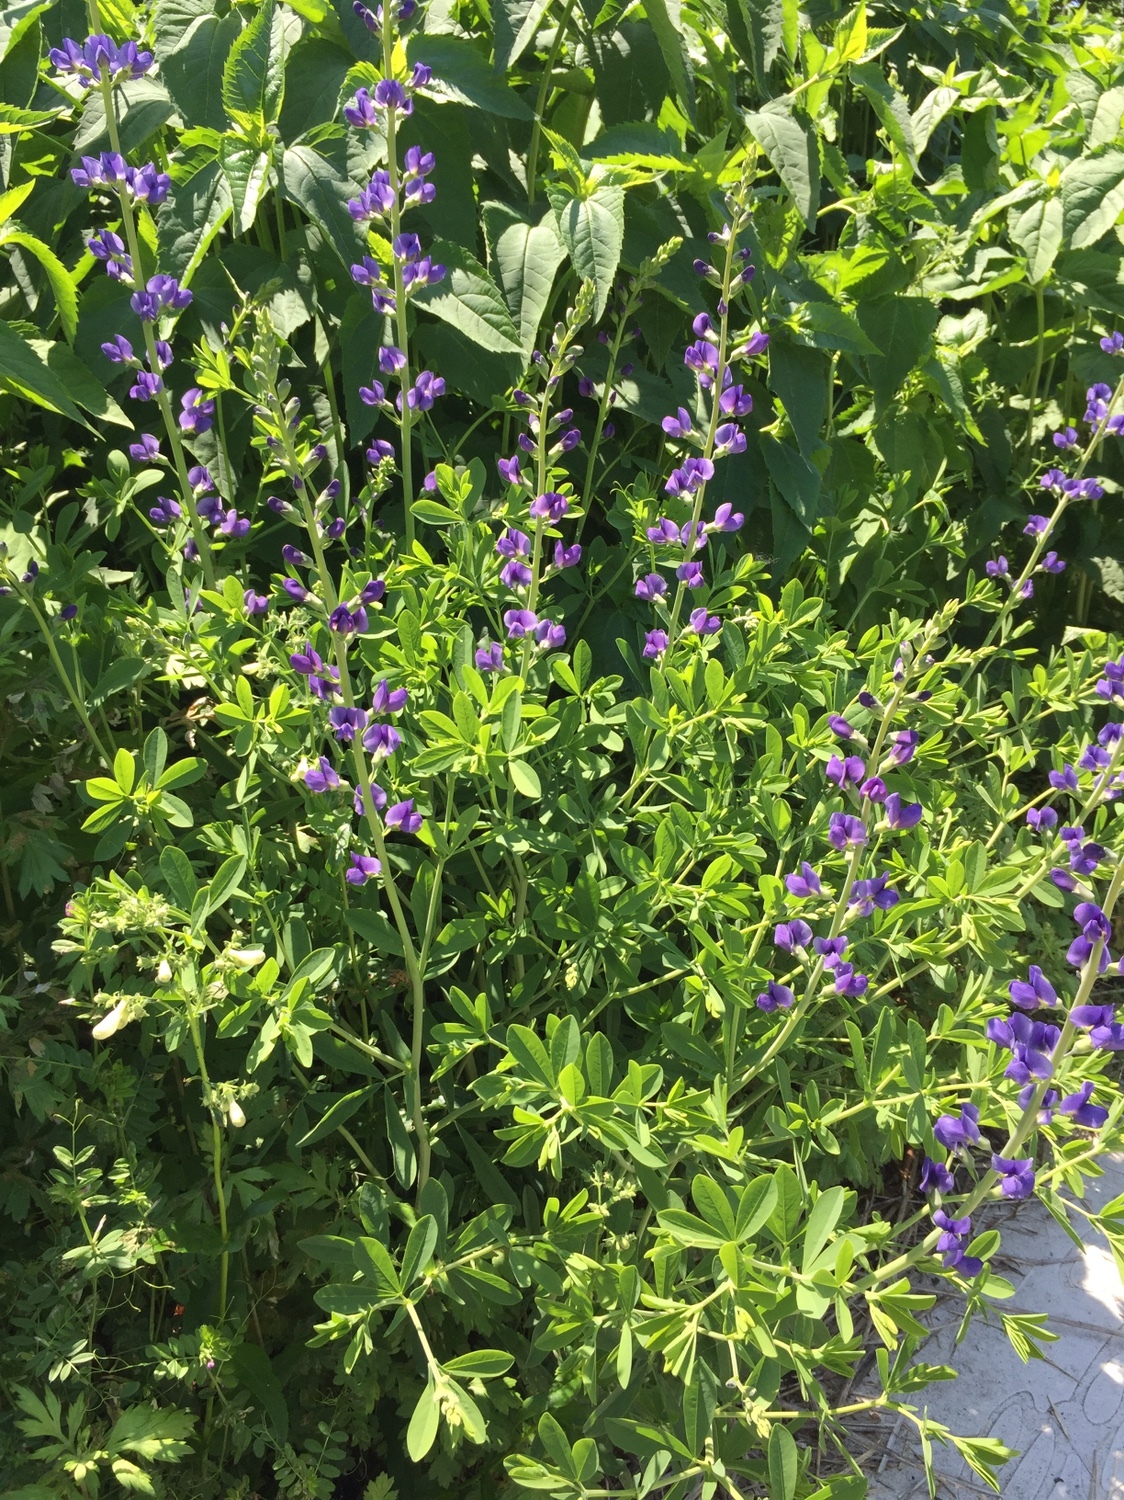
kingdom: Plantae
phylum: Tracheophyta
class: Magnoliopsida
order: Fabales
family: Fabaceae
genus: Baptisia
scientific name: Baptisia australis
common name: Blue false indigo
